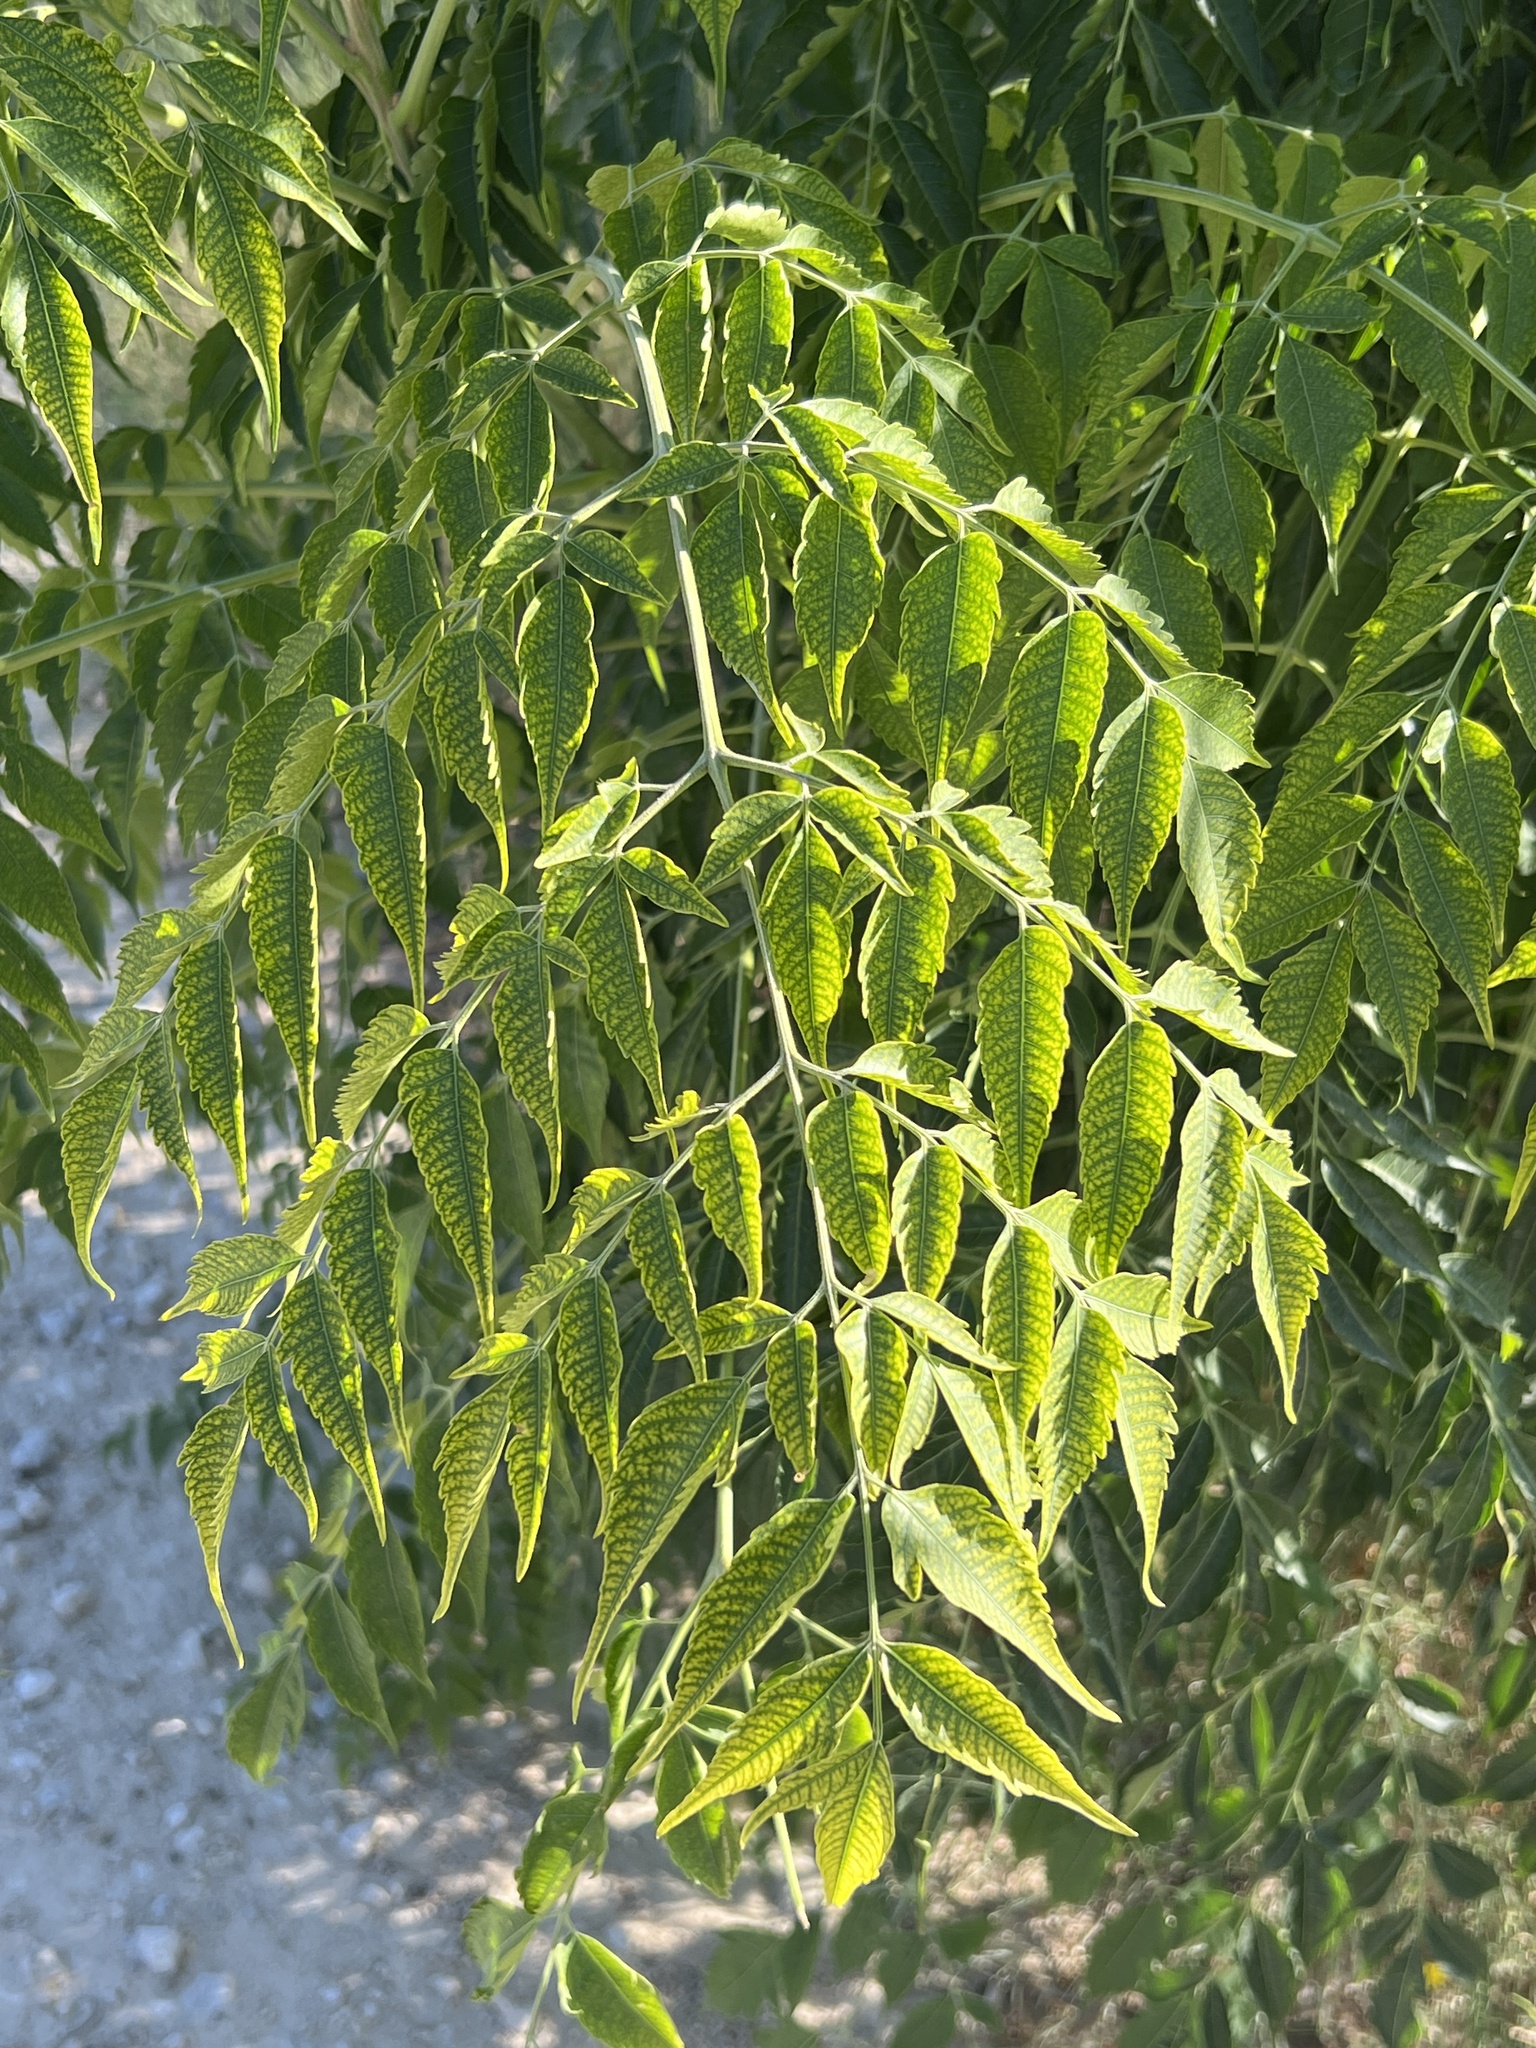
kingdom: Plantae
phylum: Tracheophyta
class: Magnoliopsida
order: Sapindales
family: Meliaceae
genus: Melia
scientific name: Melia azedarach
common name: Chinaberrytree
